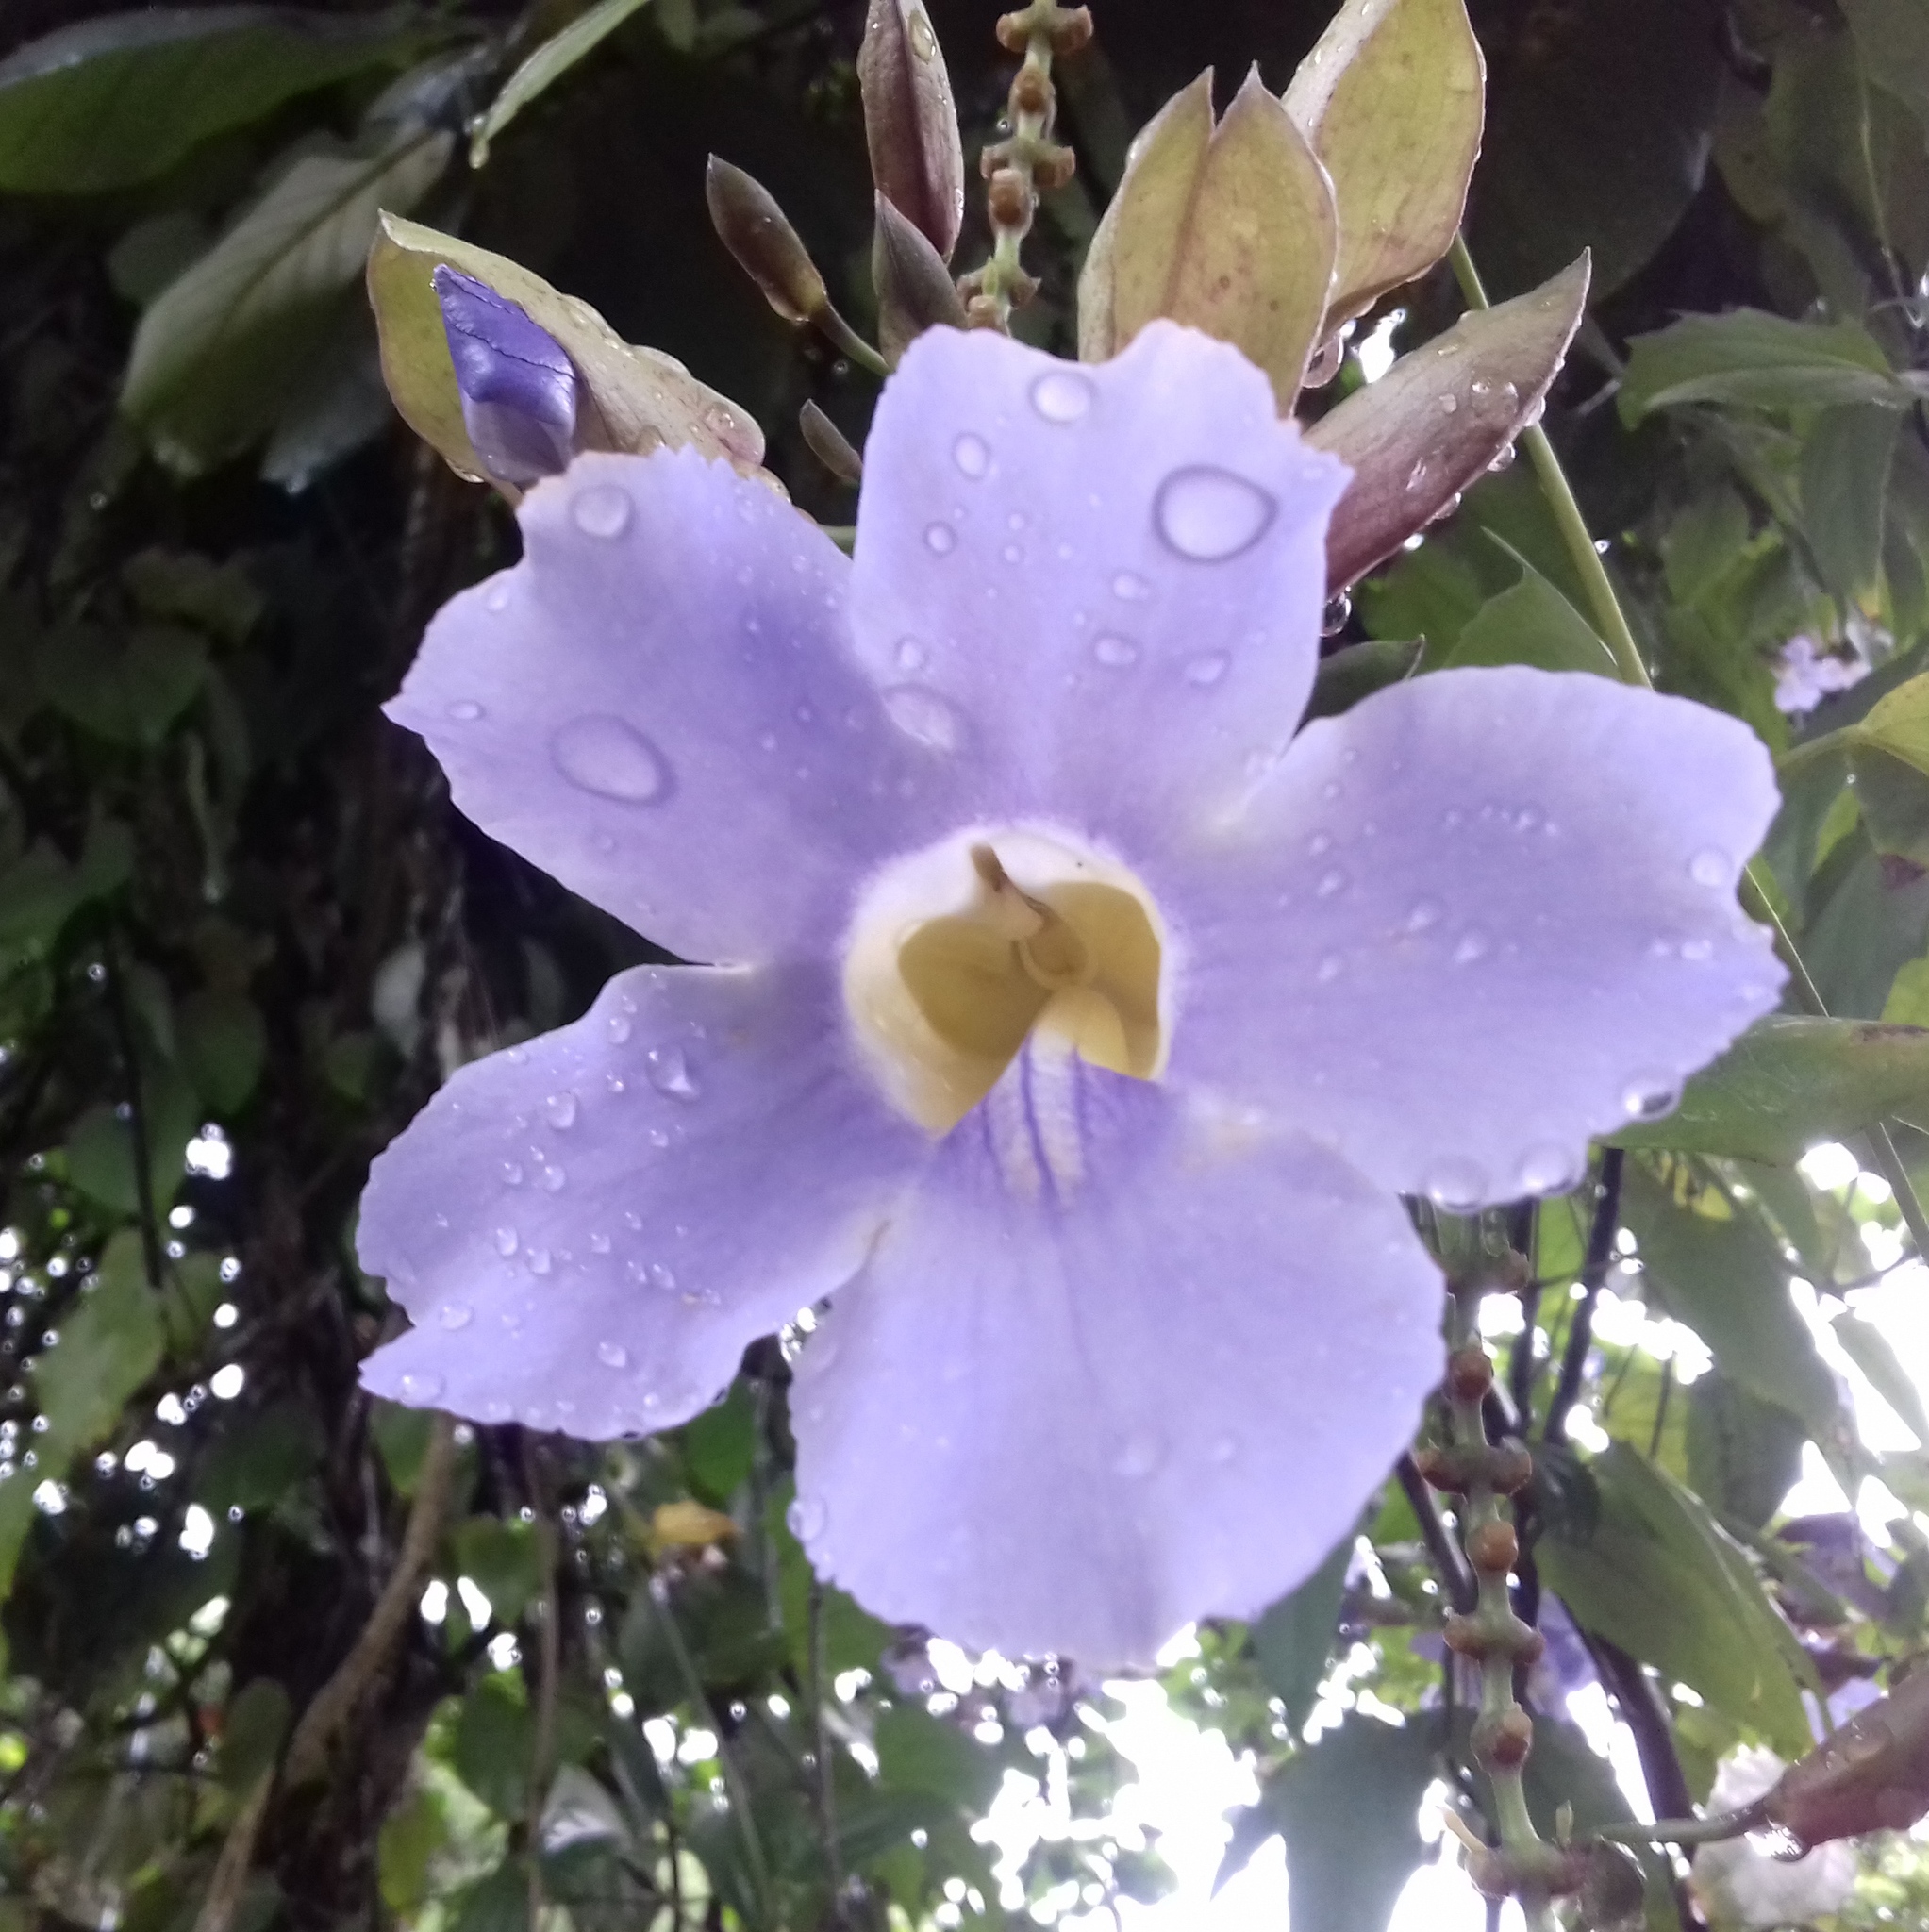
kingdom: Plantae
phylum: Tracheophyta
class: Magnoliopsida
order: Lamiales
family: Acanthaceae
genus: Thunbergia
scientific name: Thunbergia grandiflora
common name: Bengal trumpet
